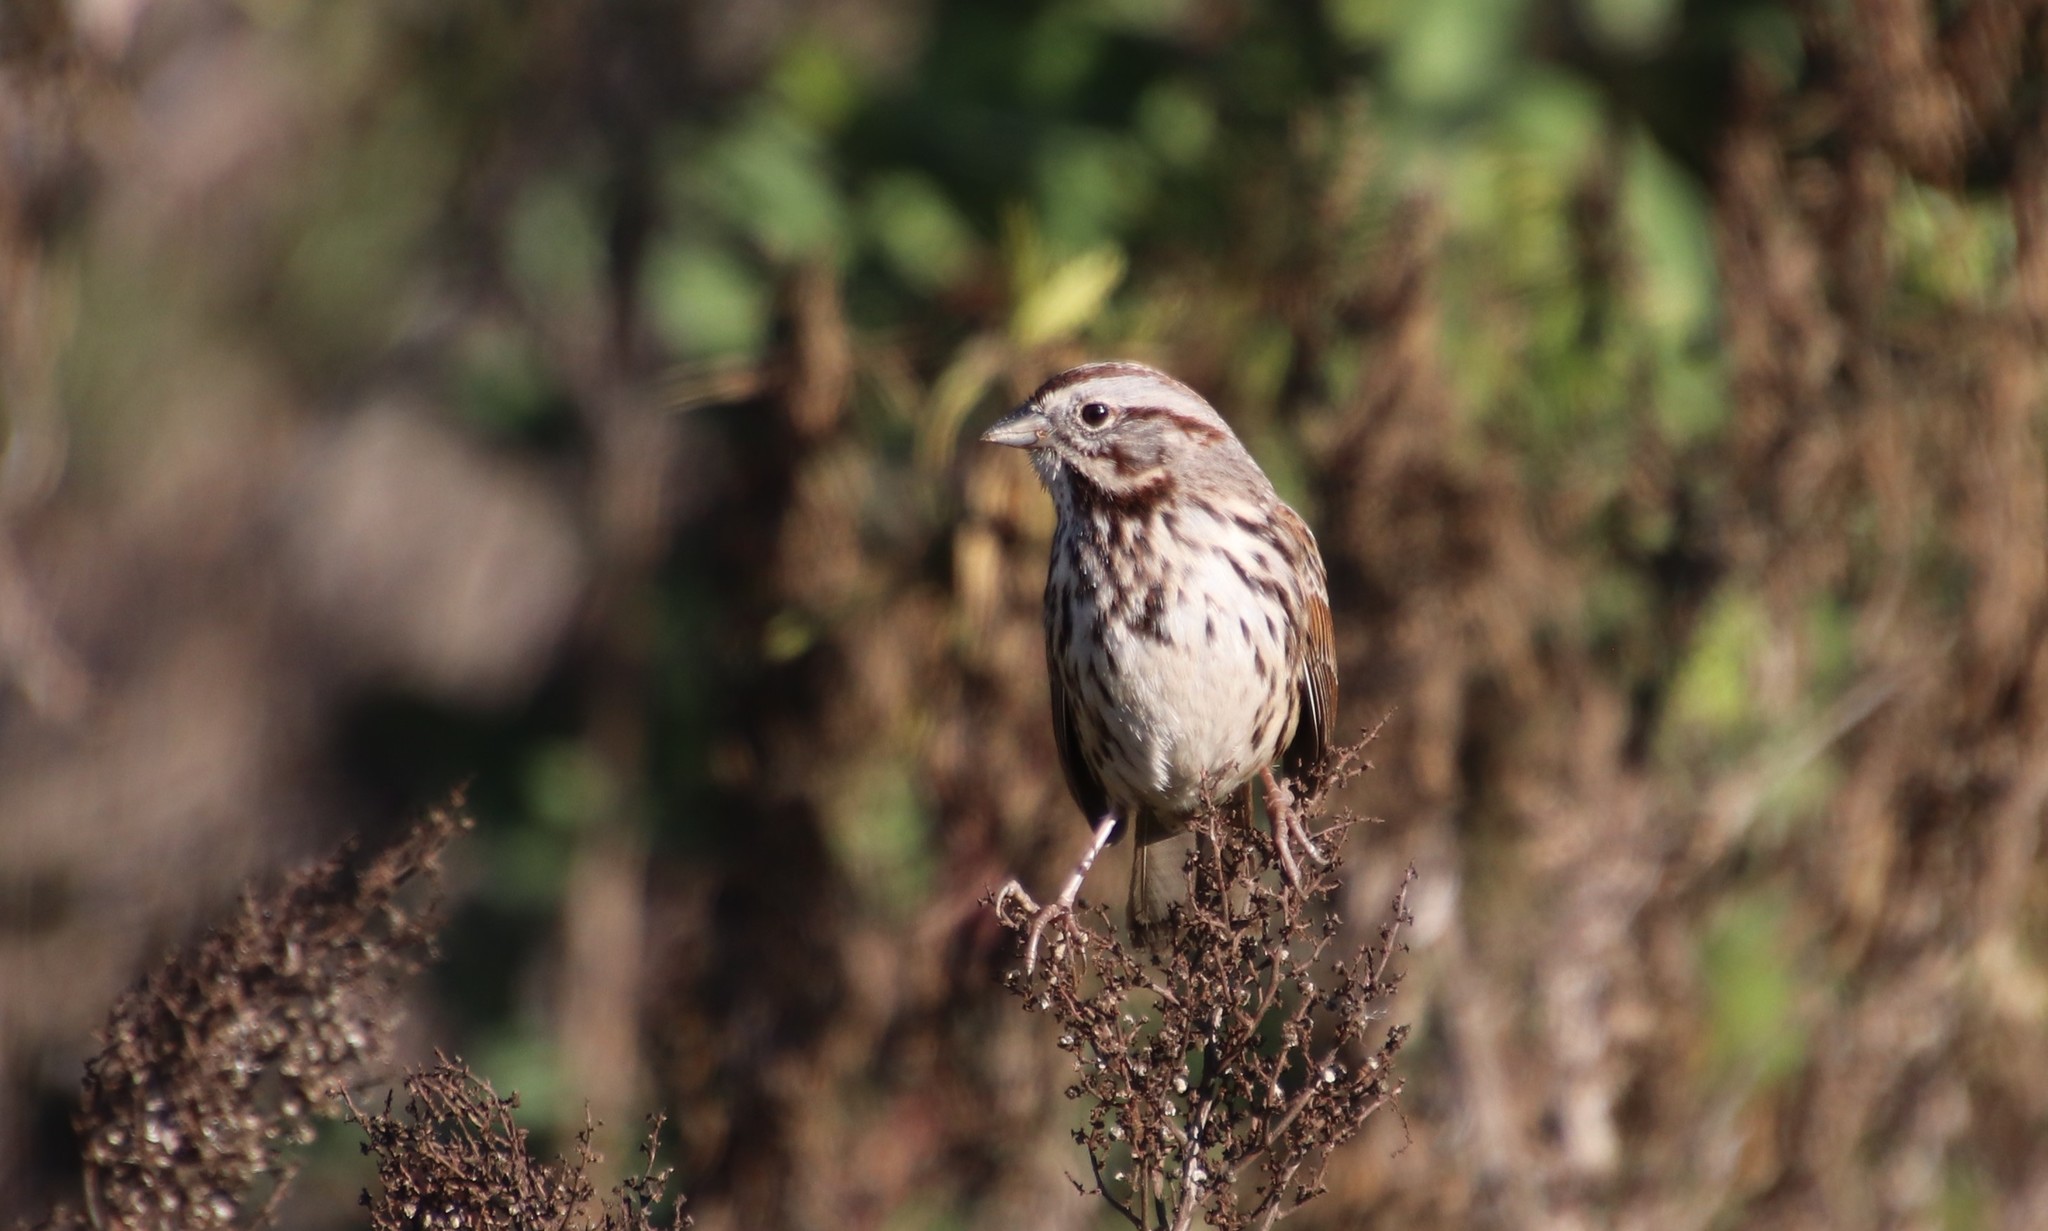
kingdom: Animalia
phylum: Chordata
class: Aves
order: Passeriformes
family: Passerellidae
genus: Melospiza
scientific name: Melospiza melodia
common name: Song sparrow
